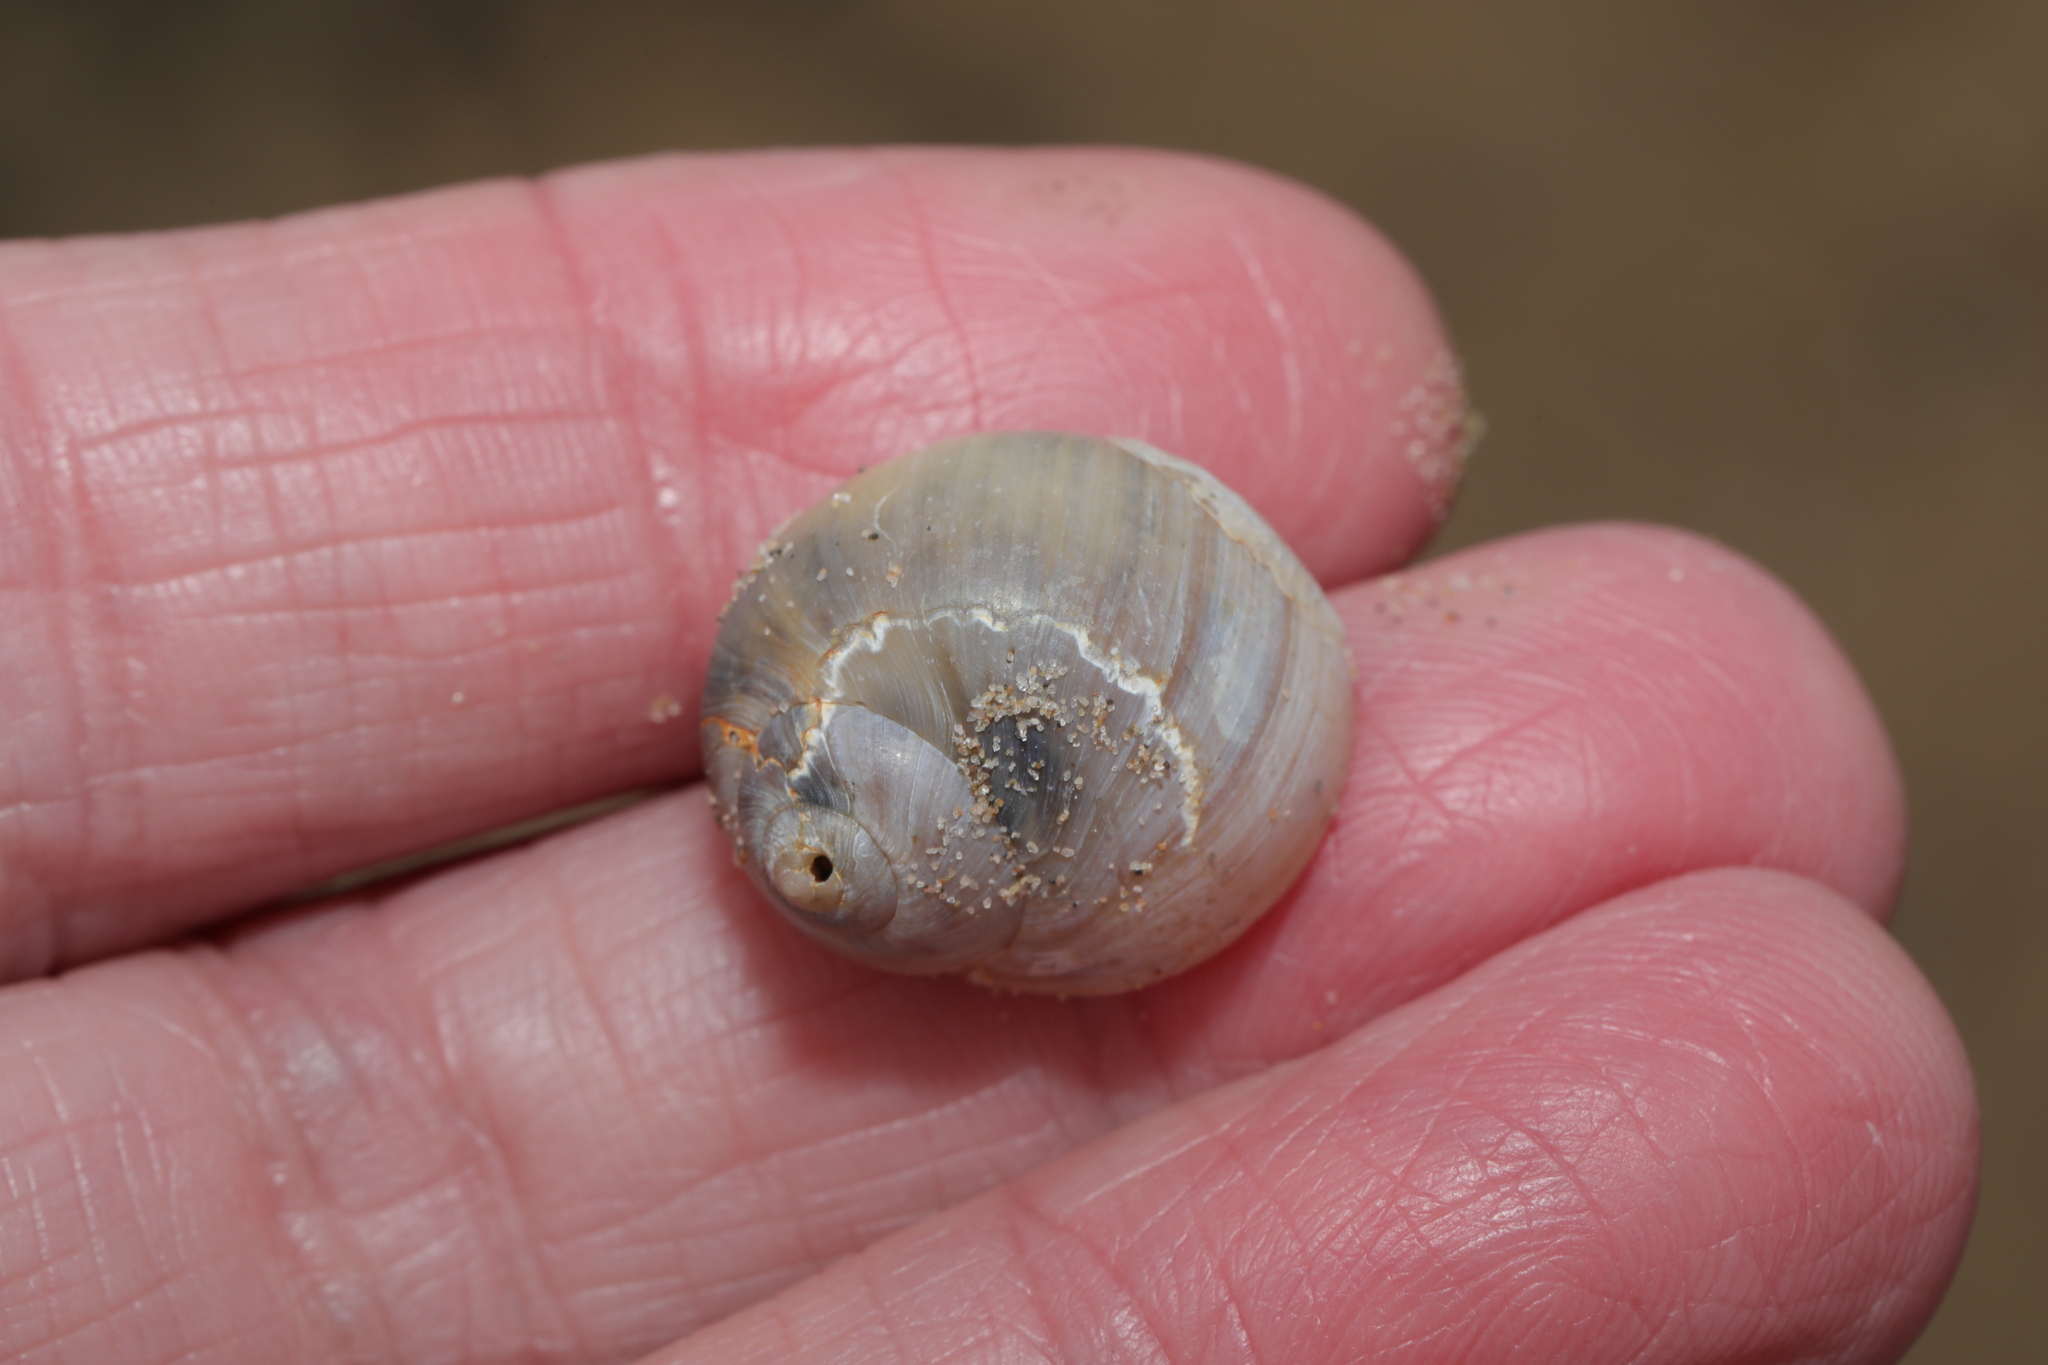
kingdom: Animalia
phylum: Mollusca
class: Gastropoda
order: Littorinimorpha
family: Naticidae
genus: Euspira
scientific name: Euspira catena
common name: Necklace shell
